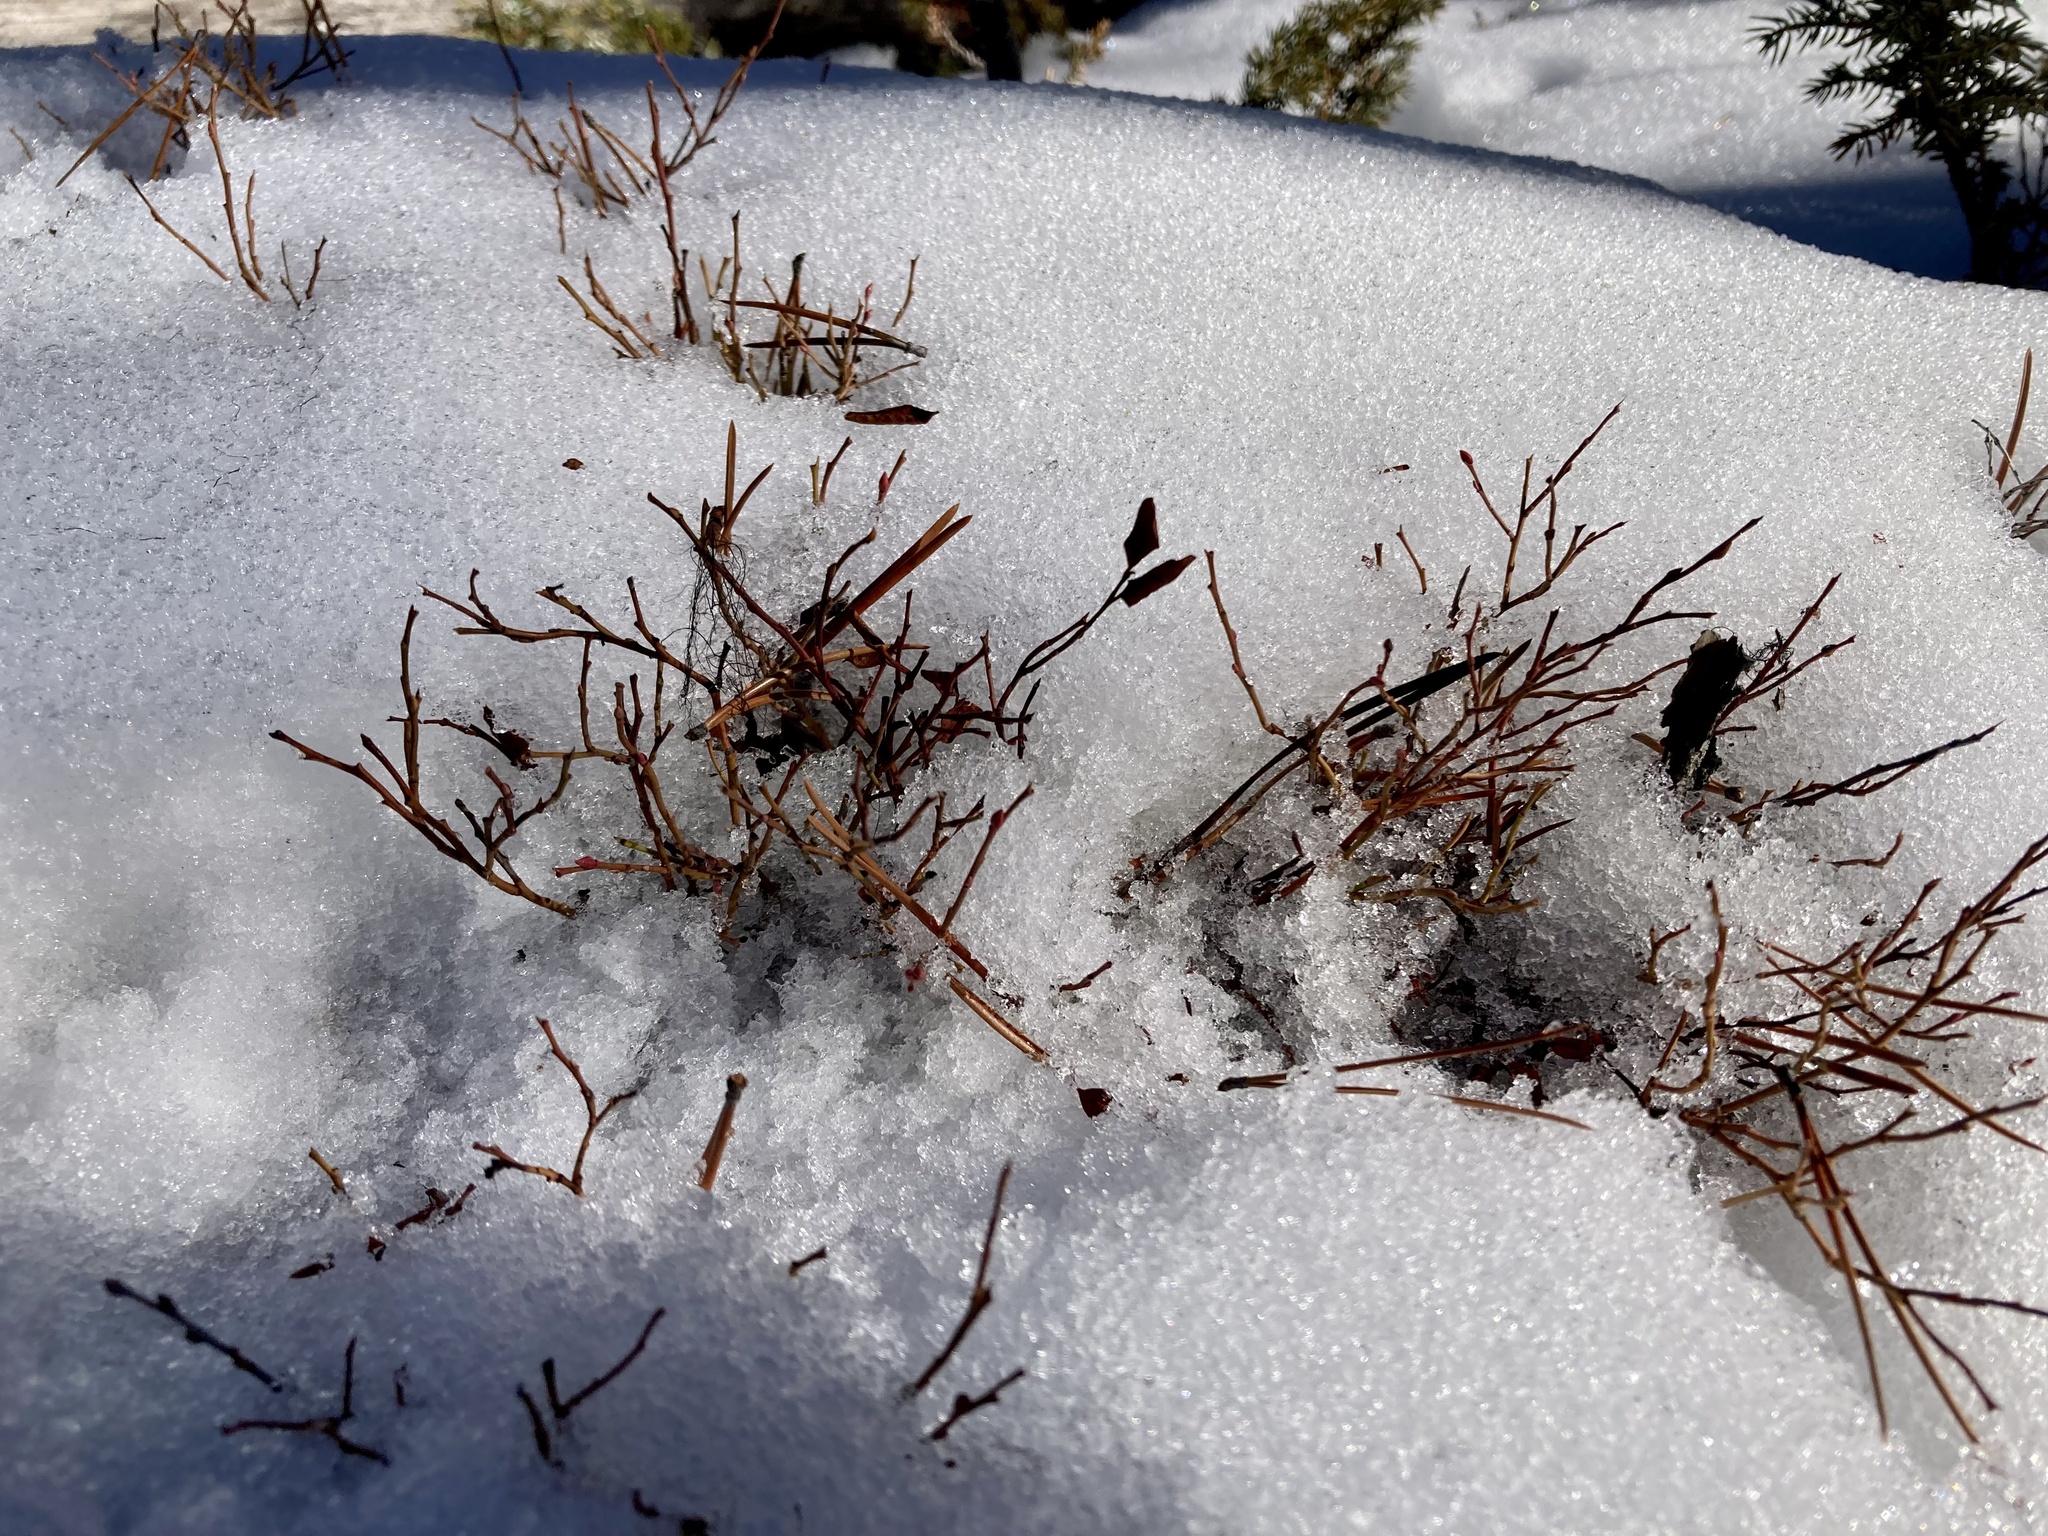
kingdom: Plantae
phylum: Tracheophyta
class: Magnoliopsida
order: Ericales
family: Ericaceae
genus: Vaccinium
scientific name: Vaccinium scoparium
